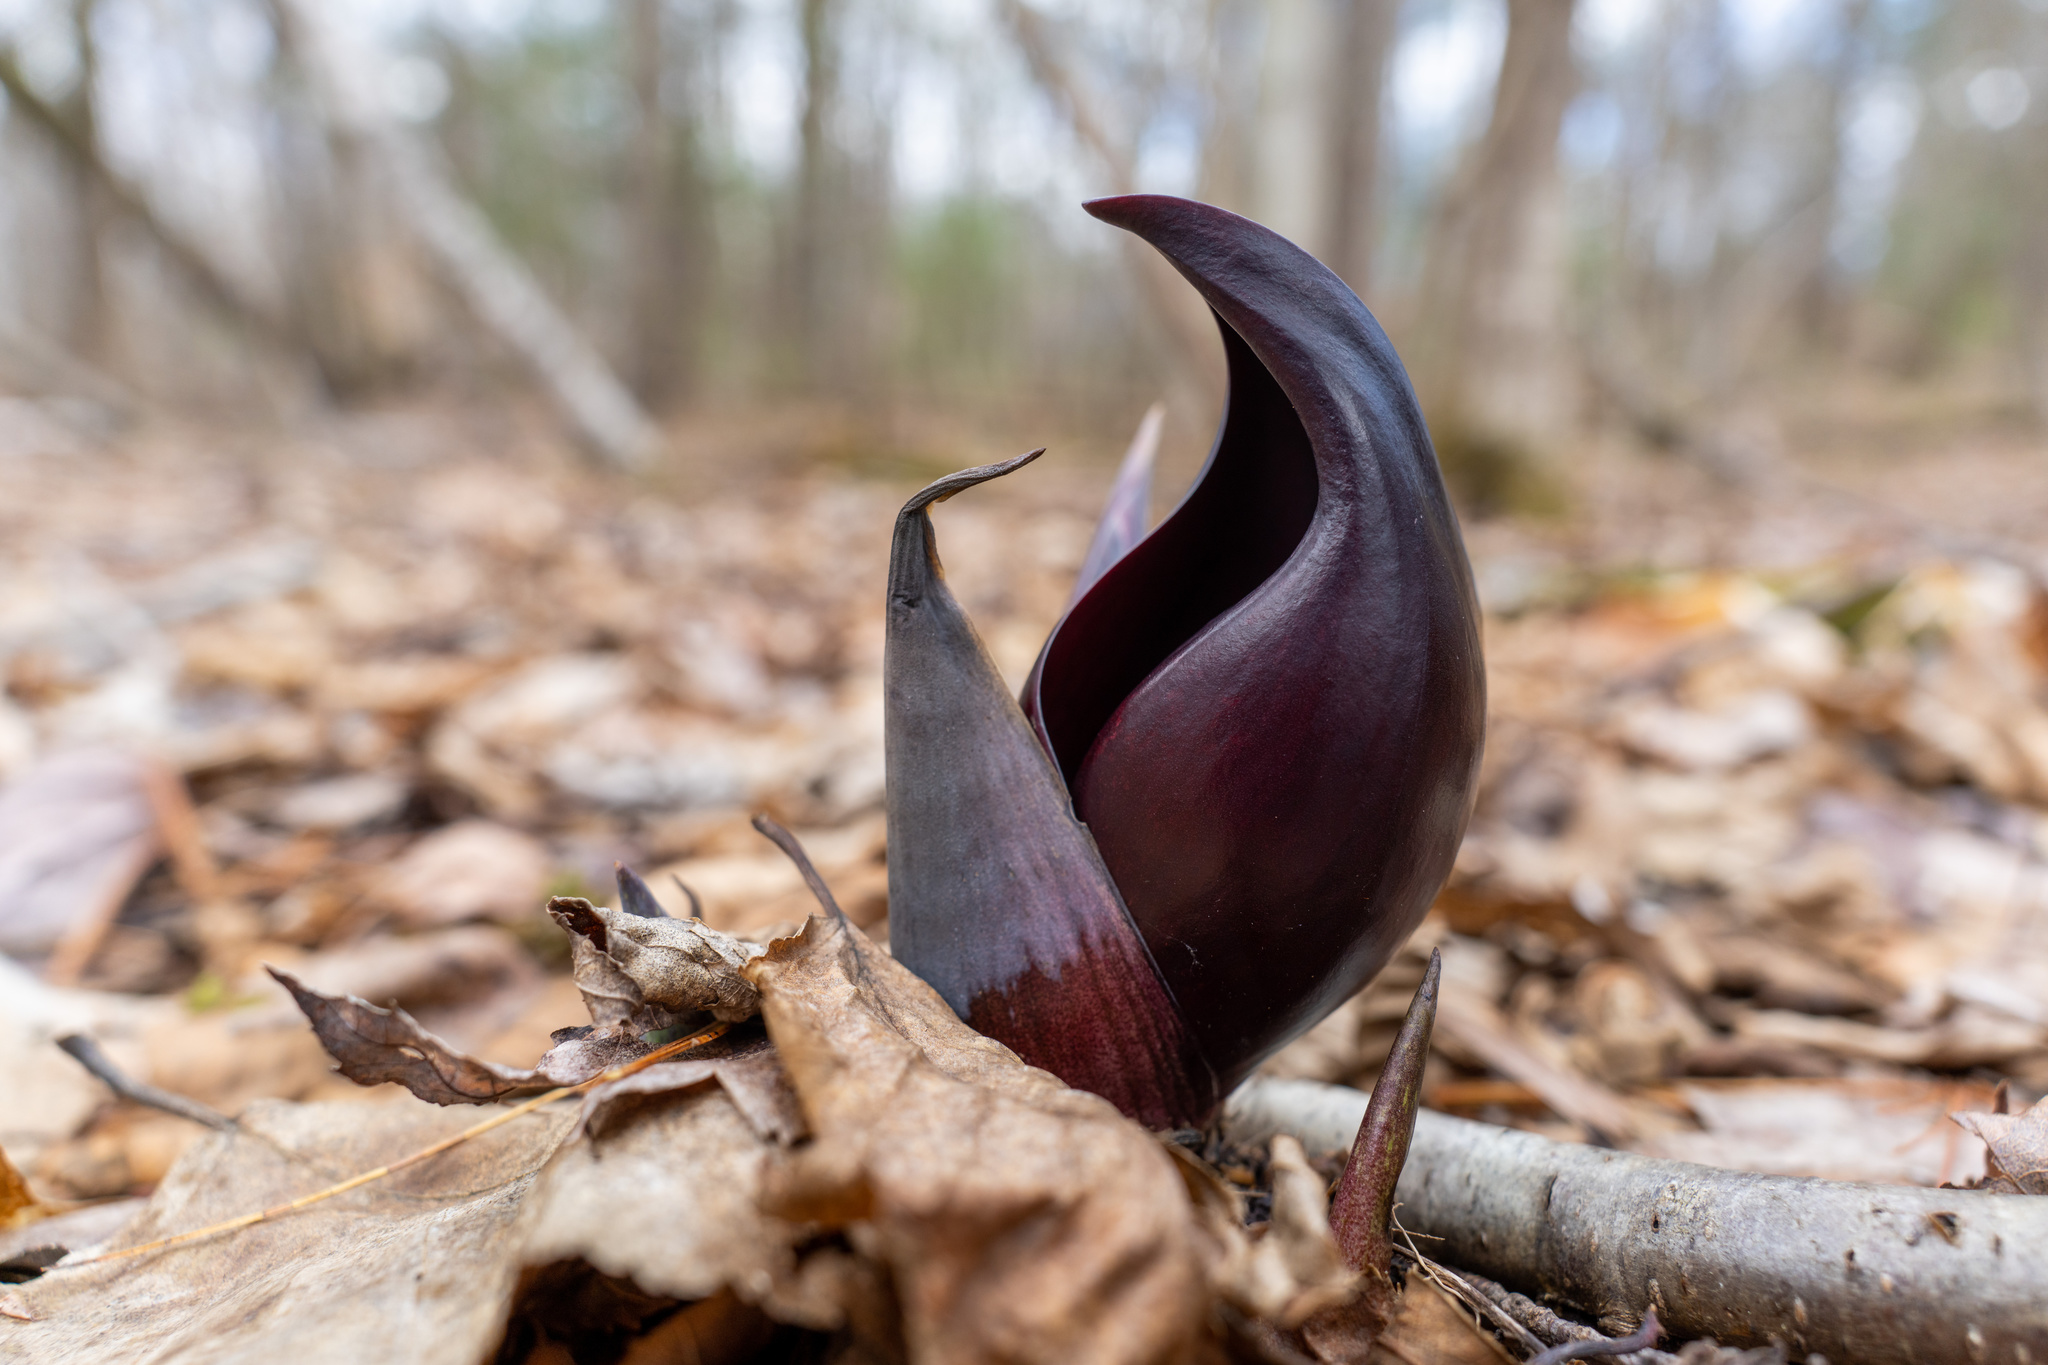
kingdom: Plantae
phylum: Tracheophyta
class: Liliopsida
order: Alismatales
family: Araceae
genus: Symplocarpus
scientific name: Symplocarpus foetidus
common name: Eastern skunk cabbage
